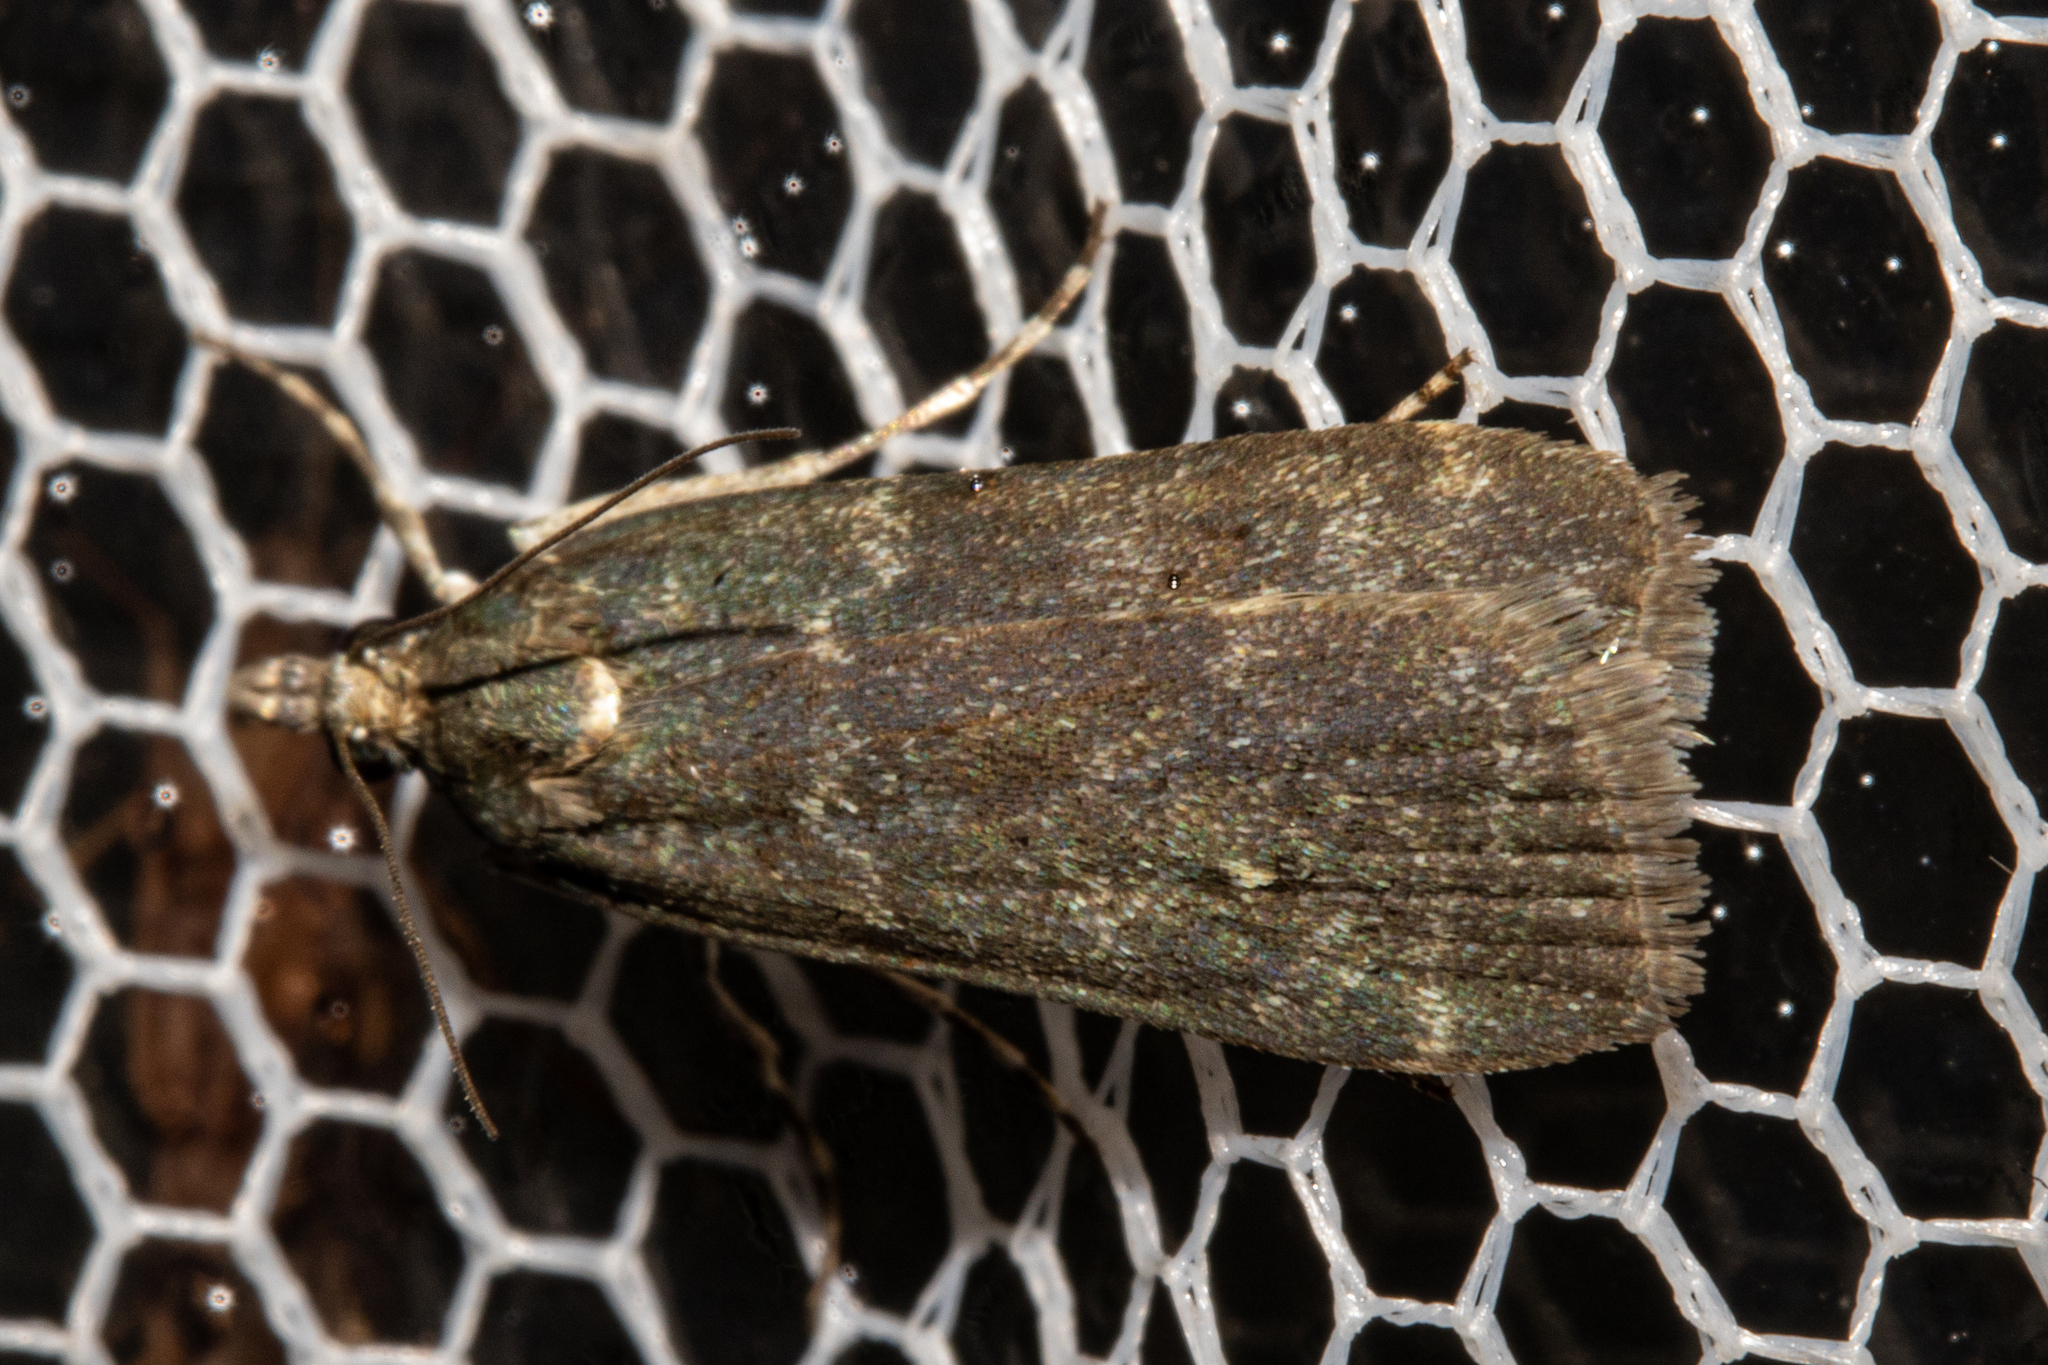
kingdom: Animalia
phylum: Arthropoda
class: Insecta
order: Lepidoptera
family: Crambidae
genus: Eudonia
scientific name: Eudonia cataxesta
